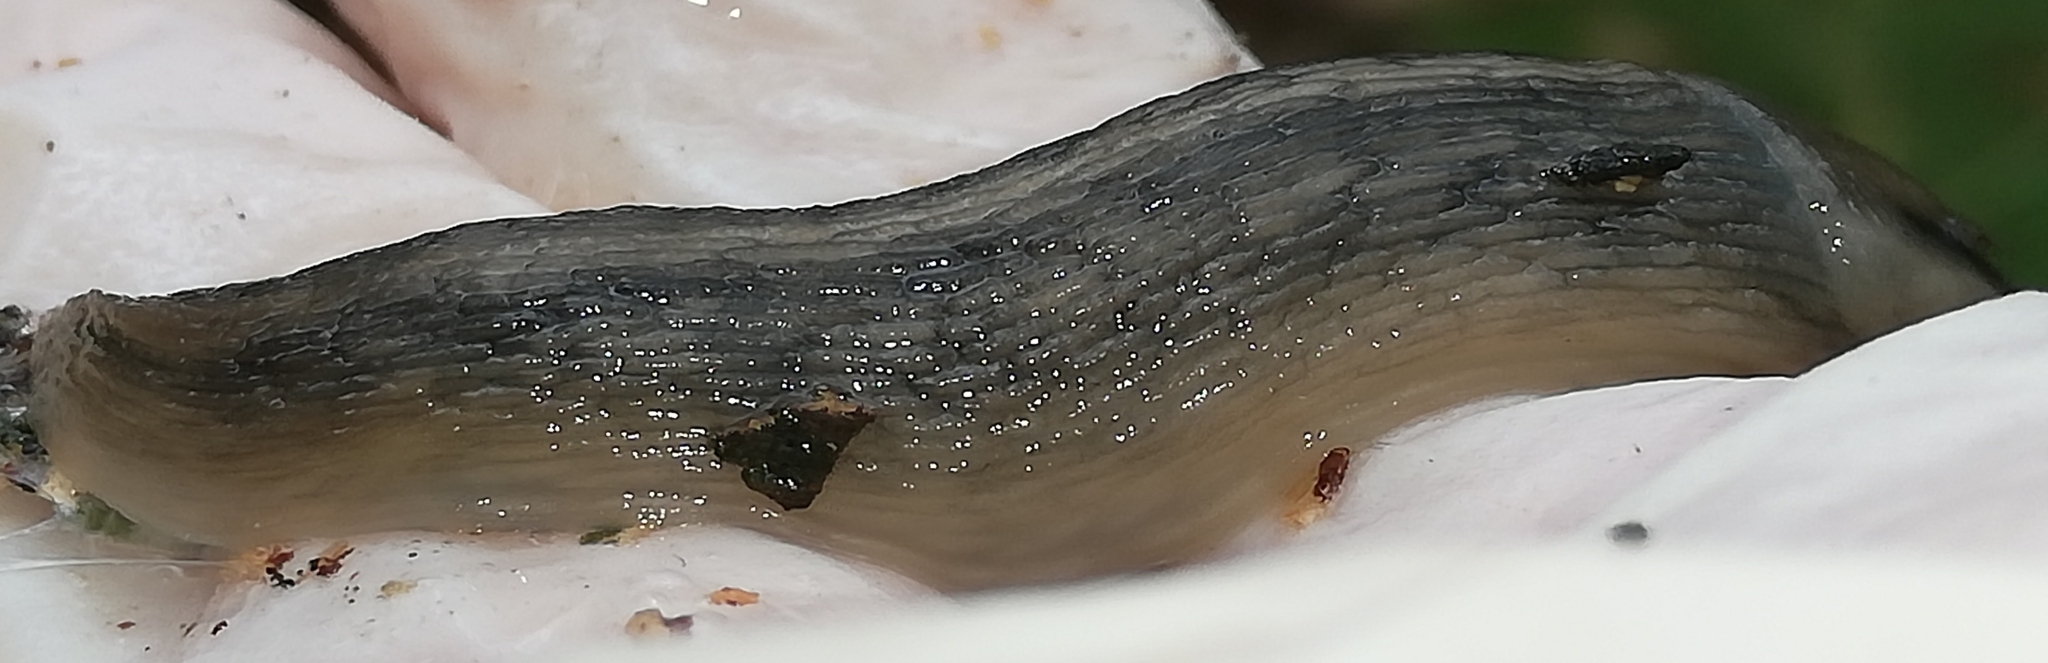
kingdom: Animalia
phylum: Mollusca
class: Gastropoda
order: Stylommatophora
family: Limacidae
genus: Lehmannia
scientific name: Lehmannia marginata
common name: Tree slug
